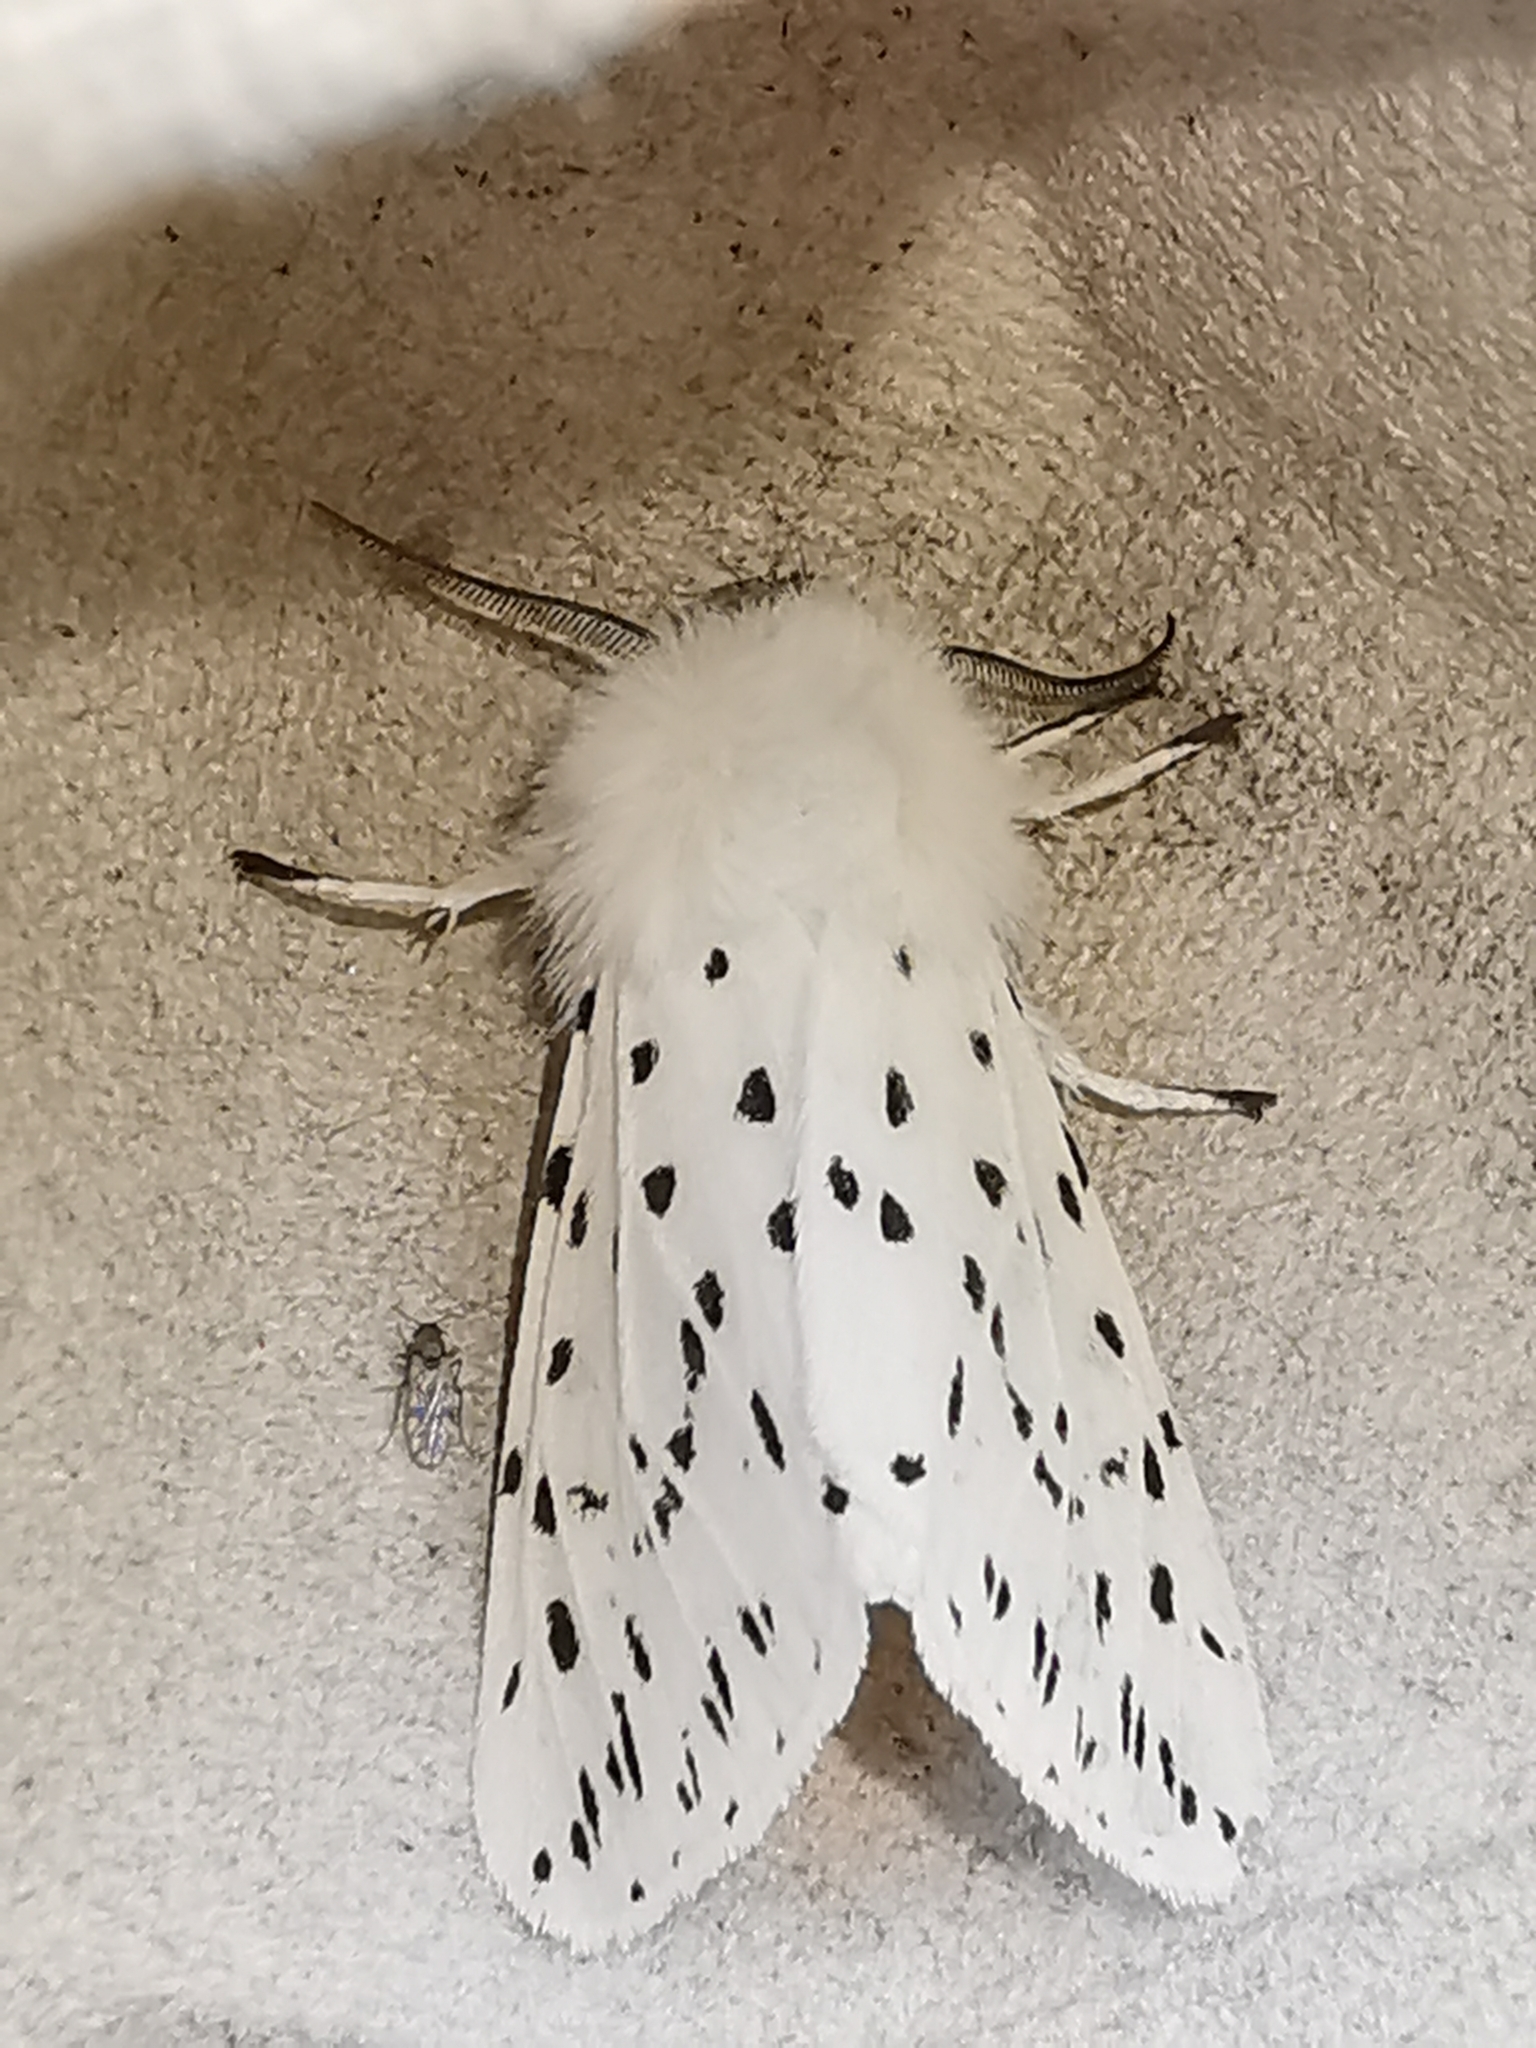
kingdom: Animalia
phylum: Arthropoda
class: Insecta
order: Lepidoptera
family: Erebidae
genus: Spilosoma
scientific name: Spilosoma lubricipeda
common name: White ermine
